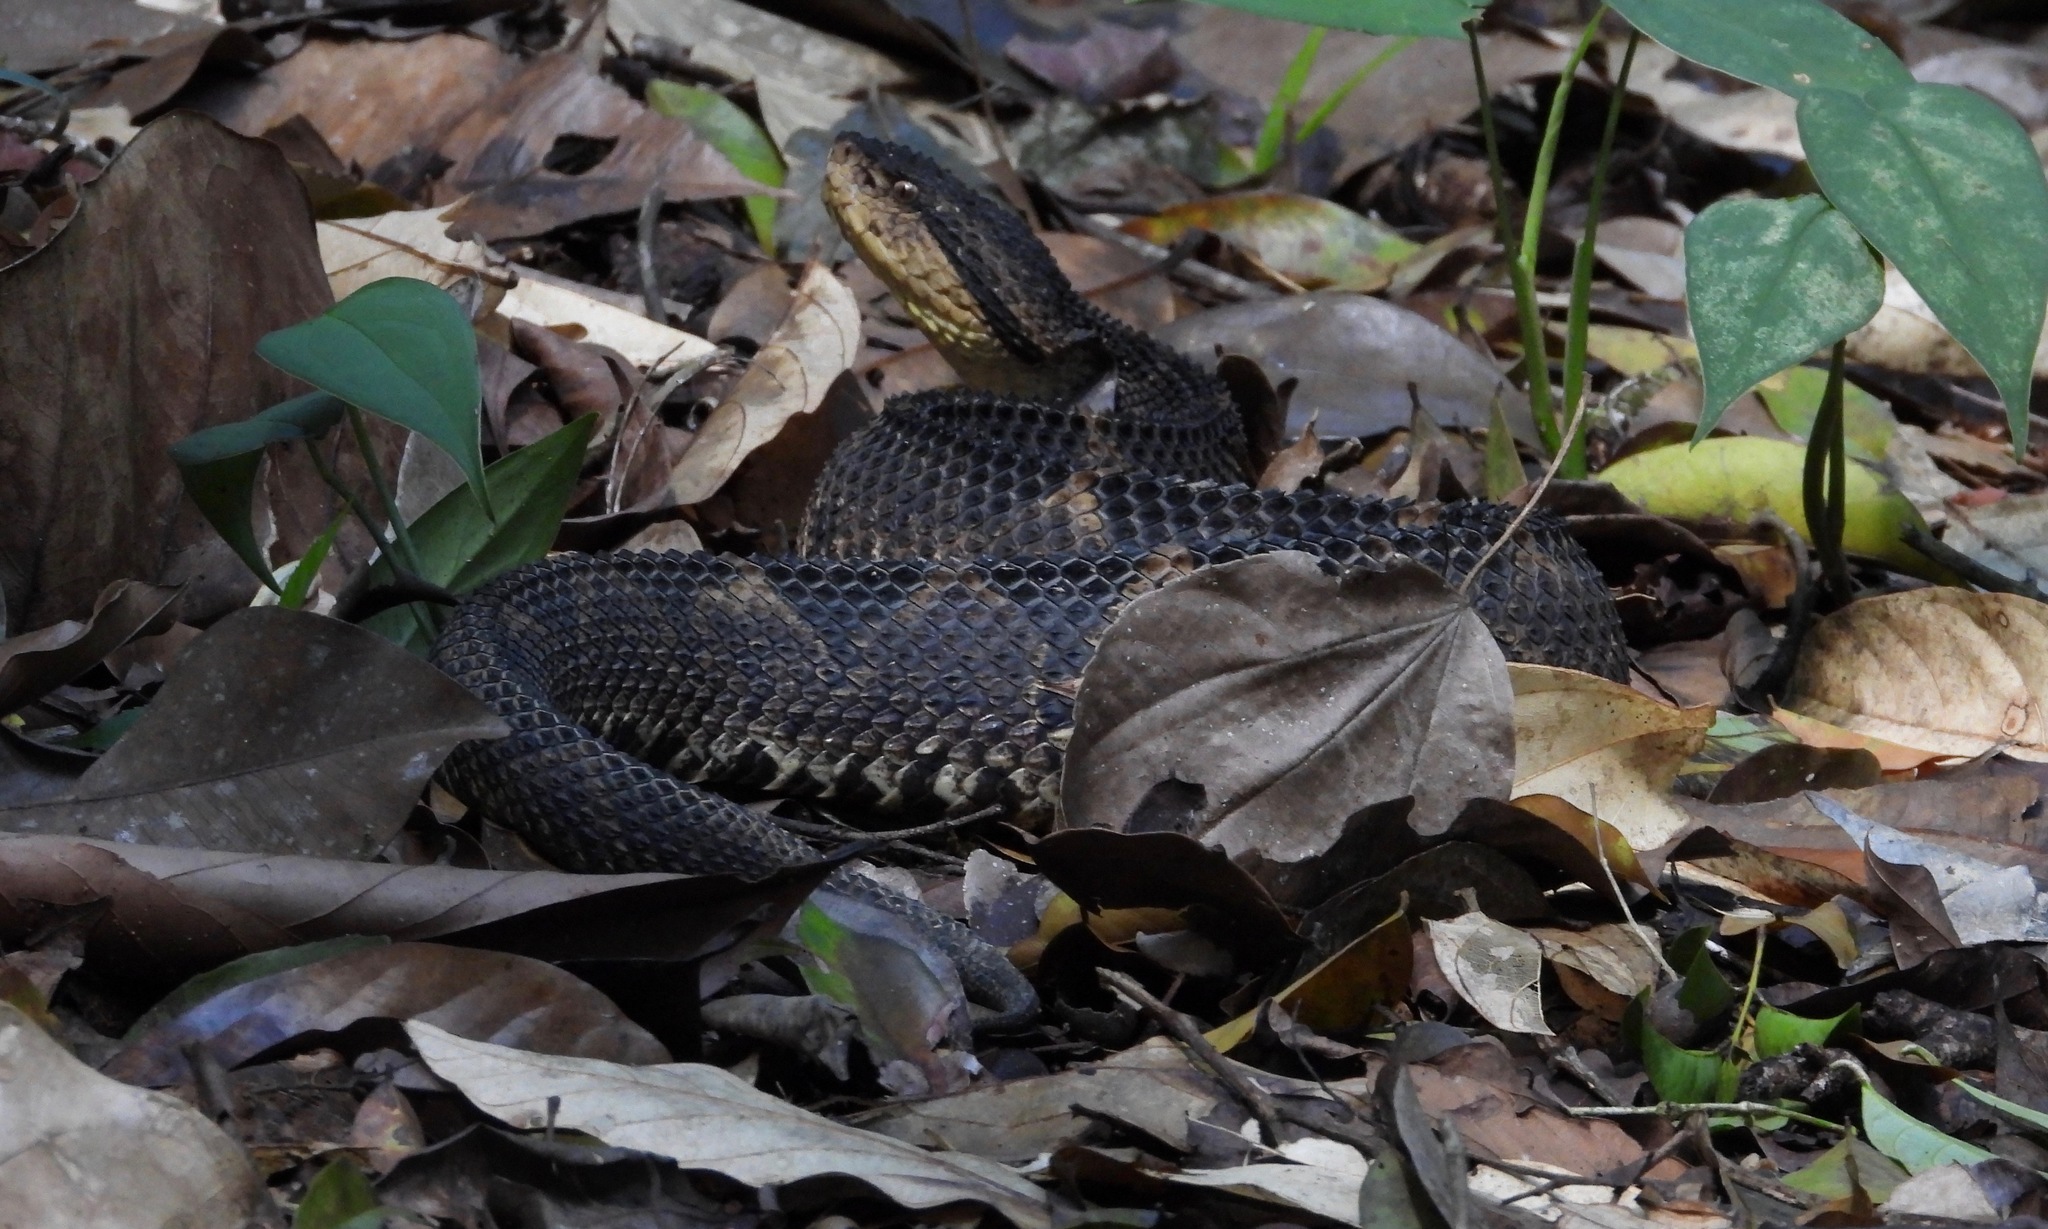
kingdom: Animalia
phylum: Chordata
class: Squamata
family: Viperidae
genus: Metlapilcoatlus
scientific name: Metlapilcoatlus mexicanus
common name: Central american jumping pit viper
